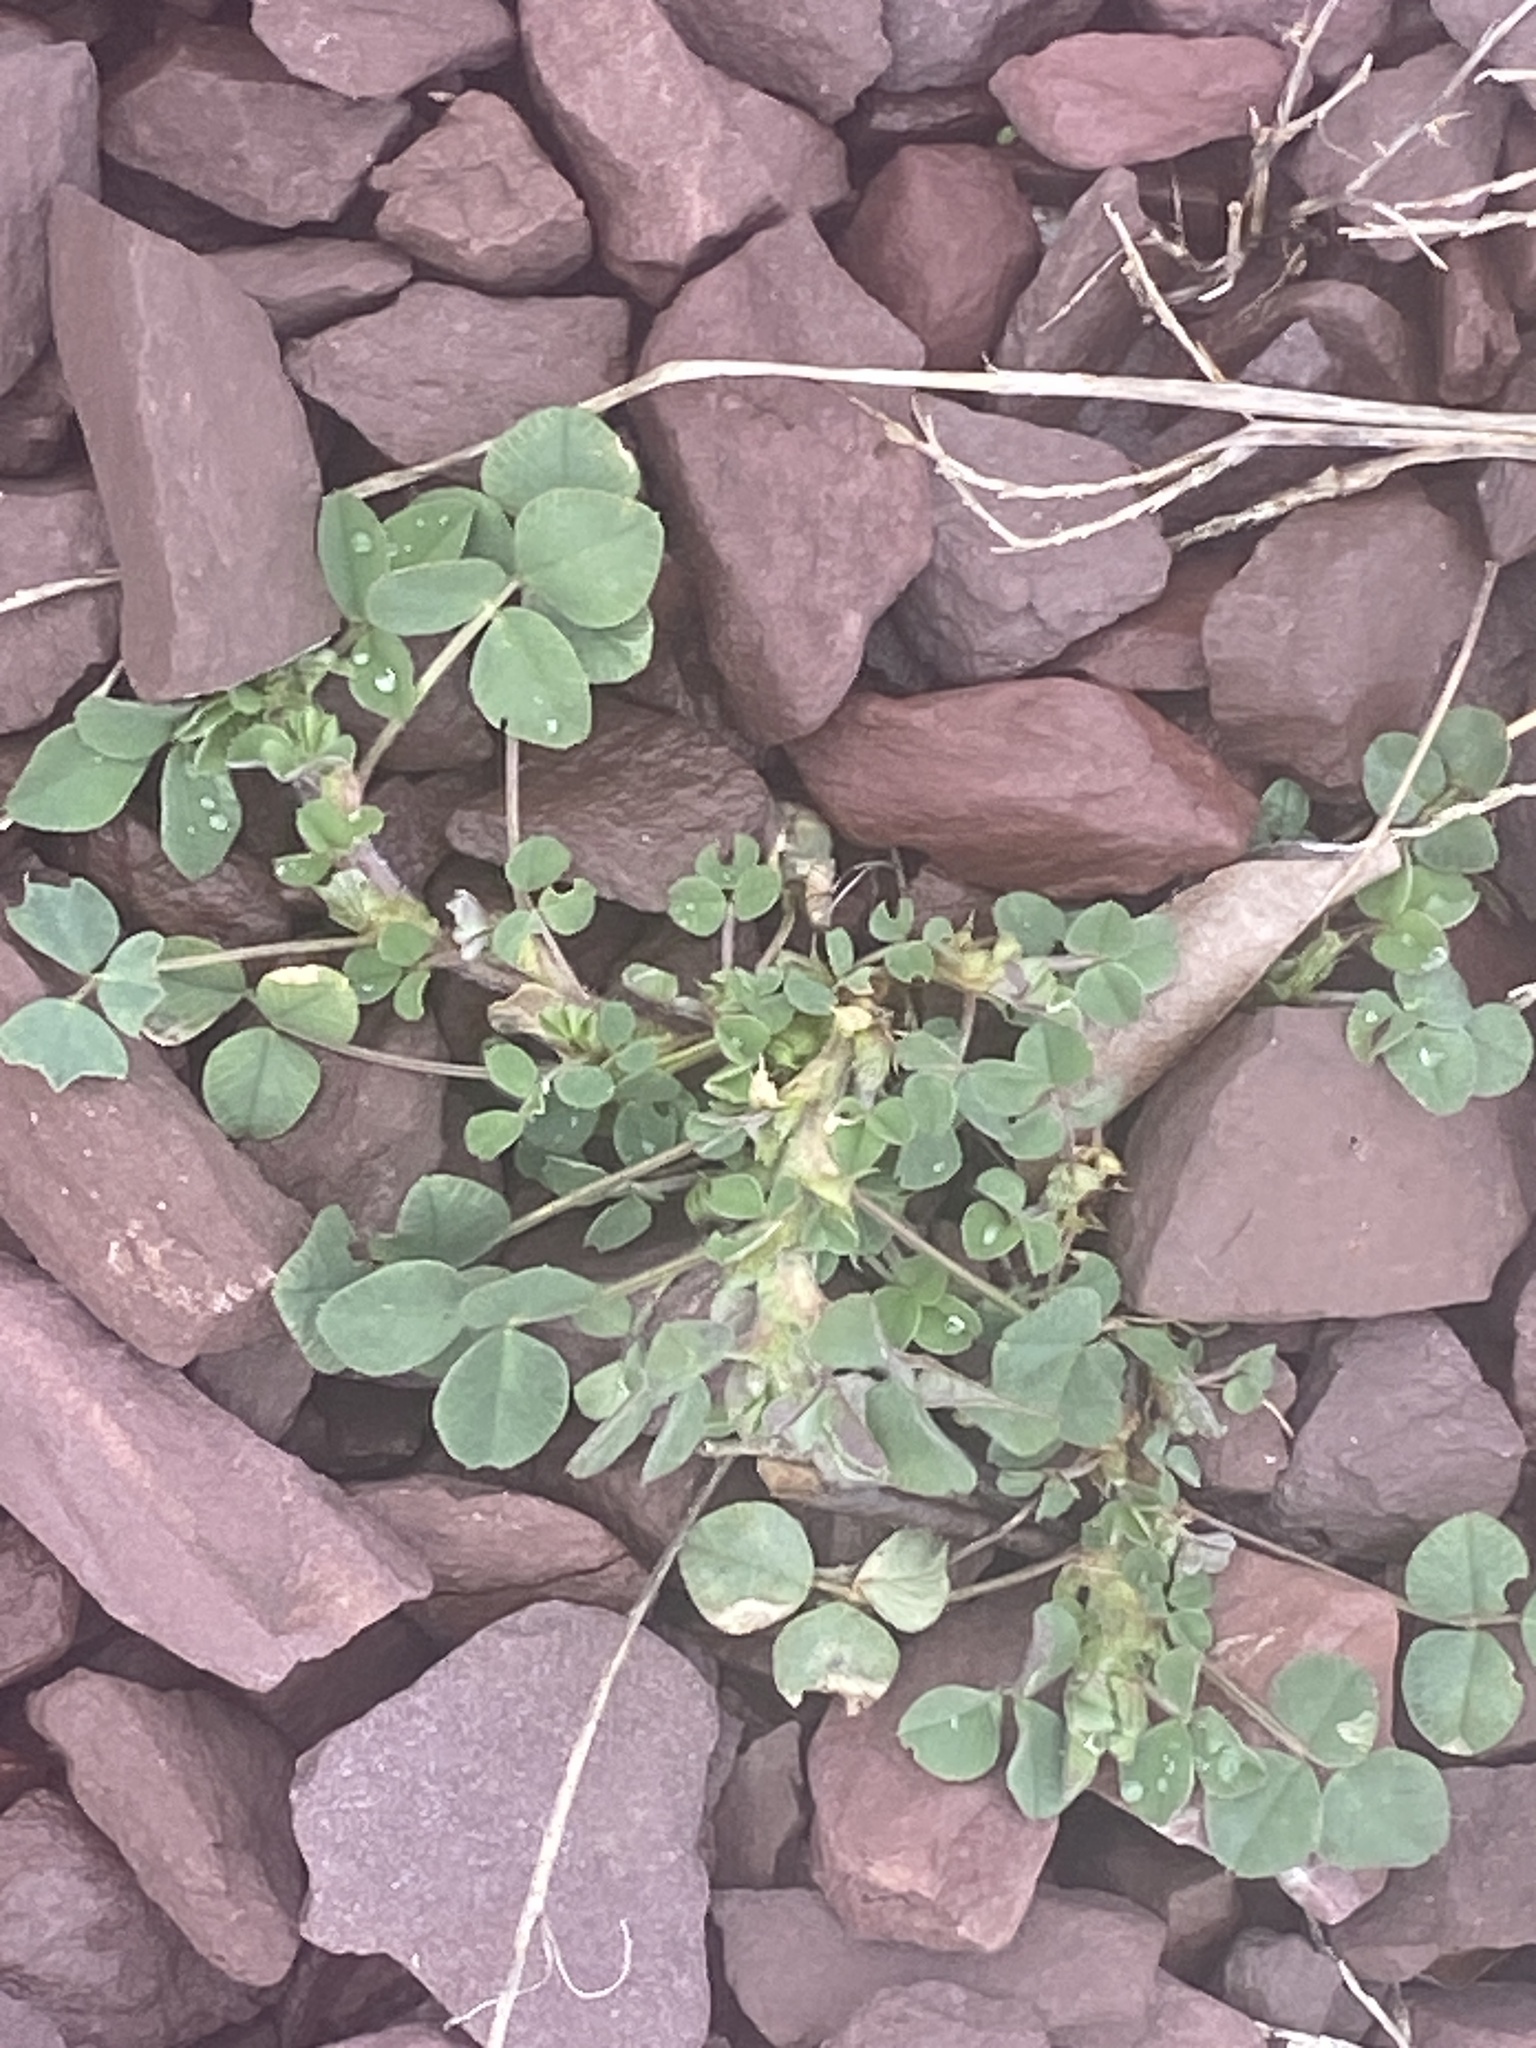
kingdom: Plantae
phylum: Tracheophyta
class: Magnoliopsida
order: Fabales
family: Fabaceae
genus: Medicago
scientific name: Medicago lupulina
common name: Black medick
